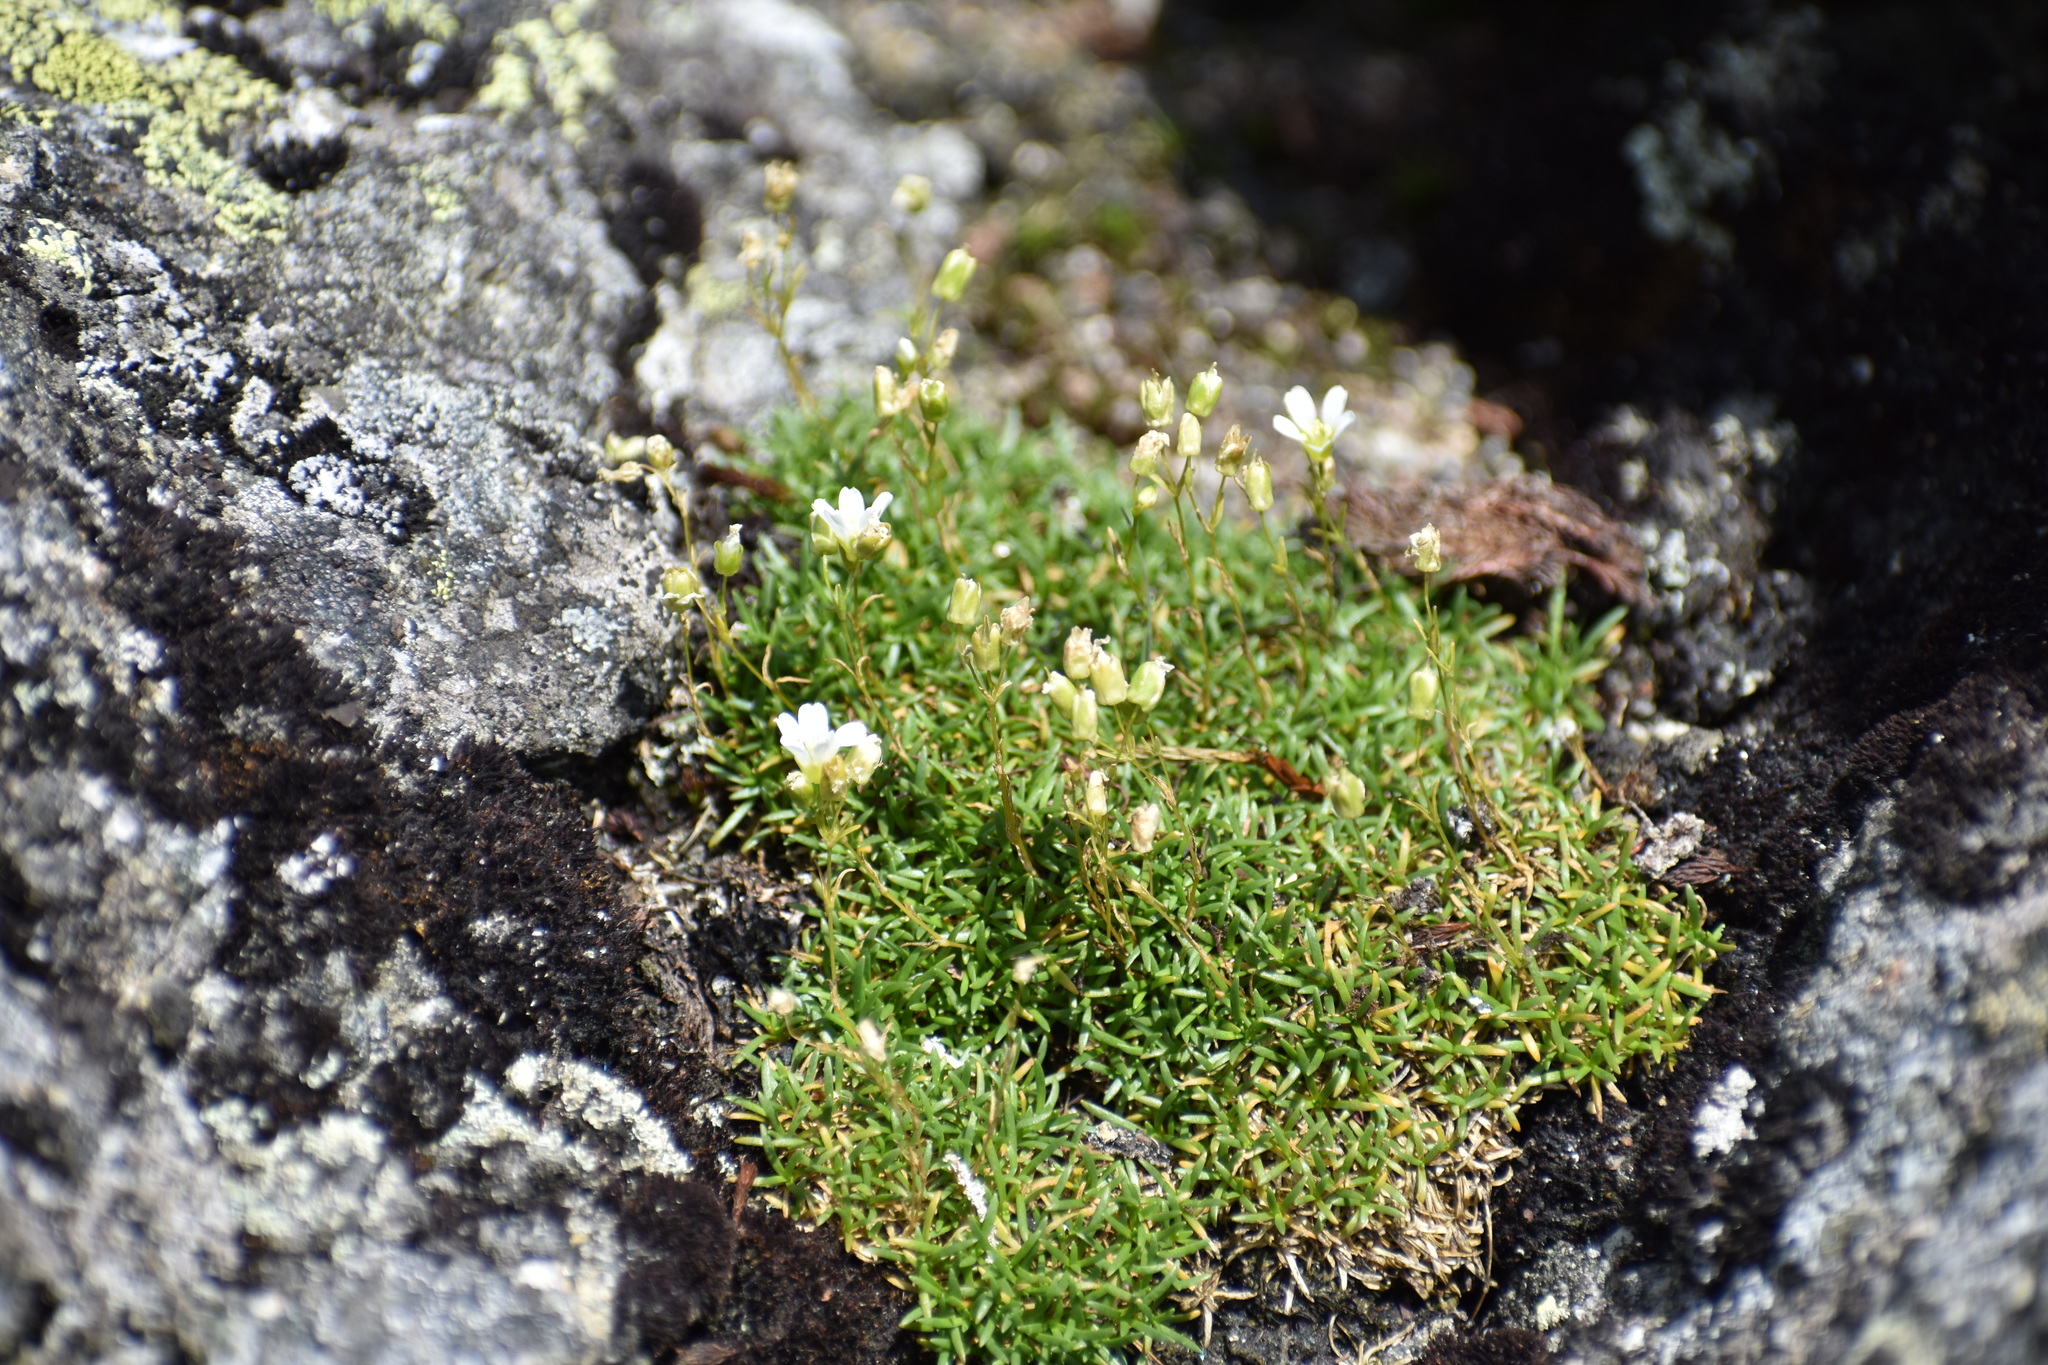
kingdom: Plantae
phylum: Tracheophyta
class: Magnoliopsida
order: Caryophyllales
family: Caryophyllaceae
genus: Geocarpon
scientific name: Geocarpon groenlandicum
